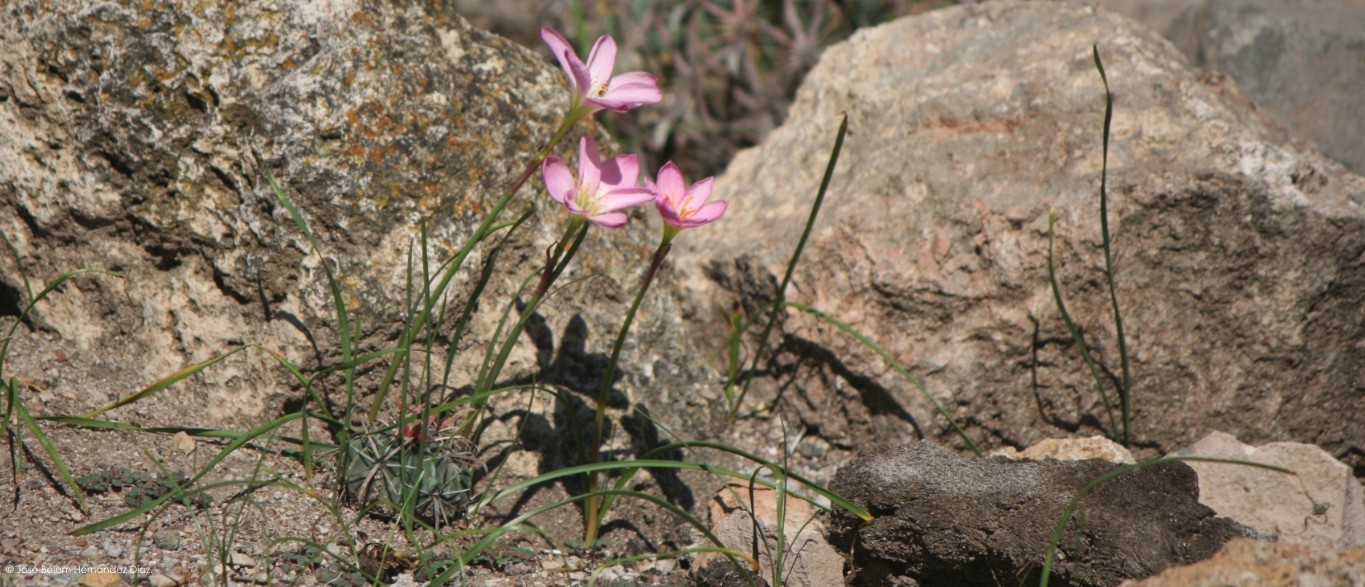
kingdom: Plantae
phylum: Tracheophyta
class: Liliopsida
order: Asparagales
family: Amaryllidaceae
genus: Zephyranthes
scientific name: Zephyranthes carinata
